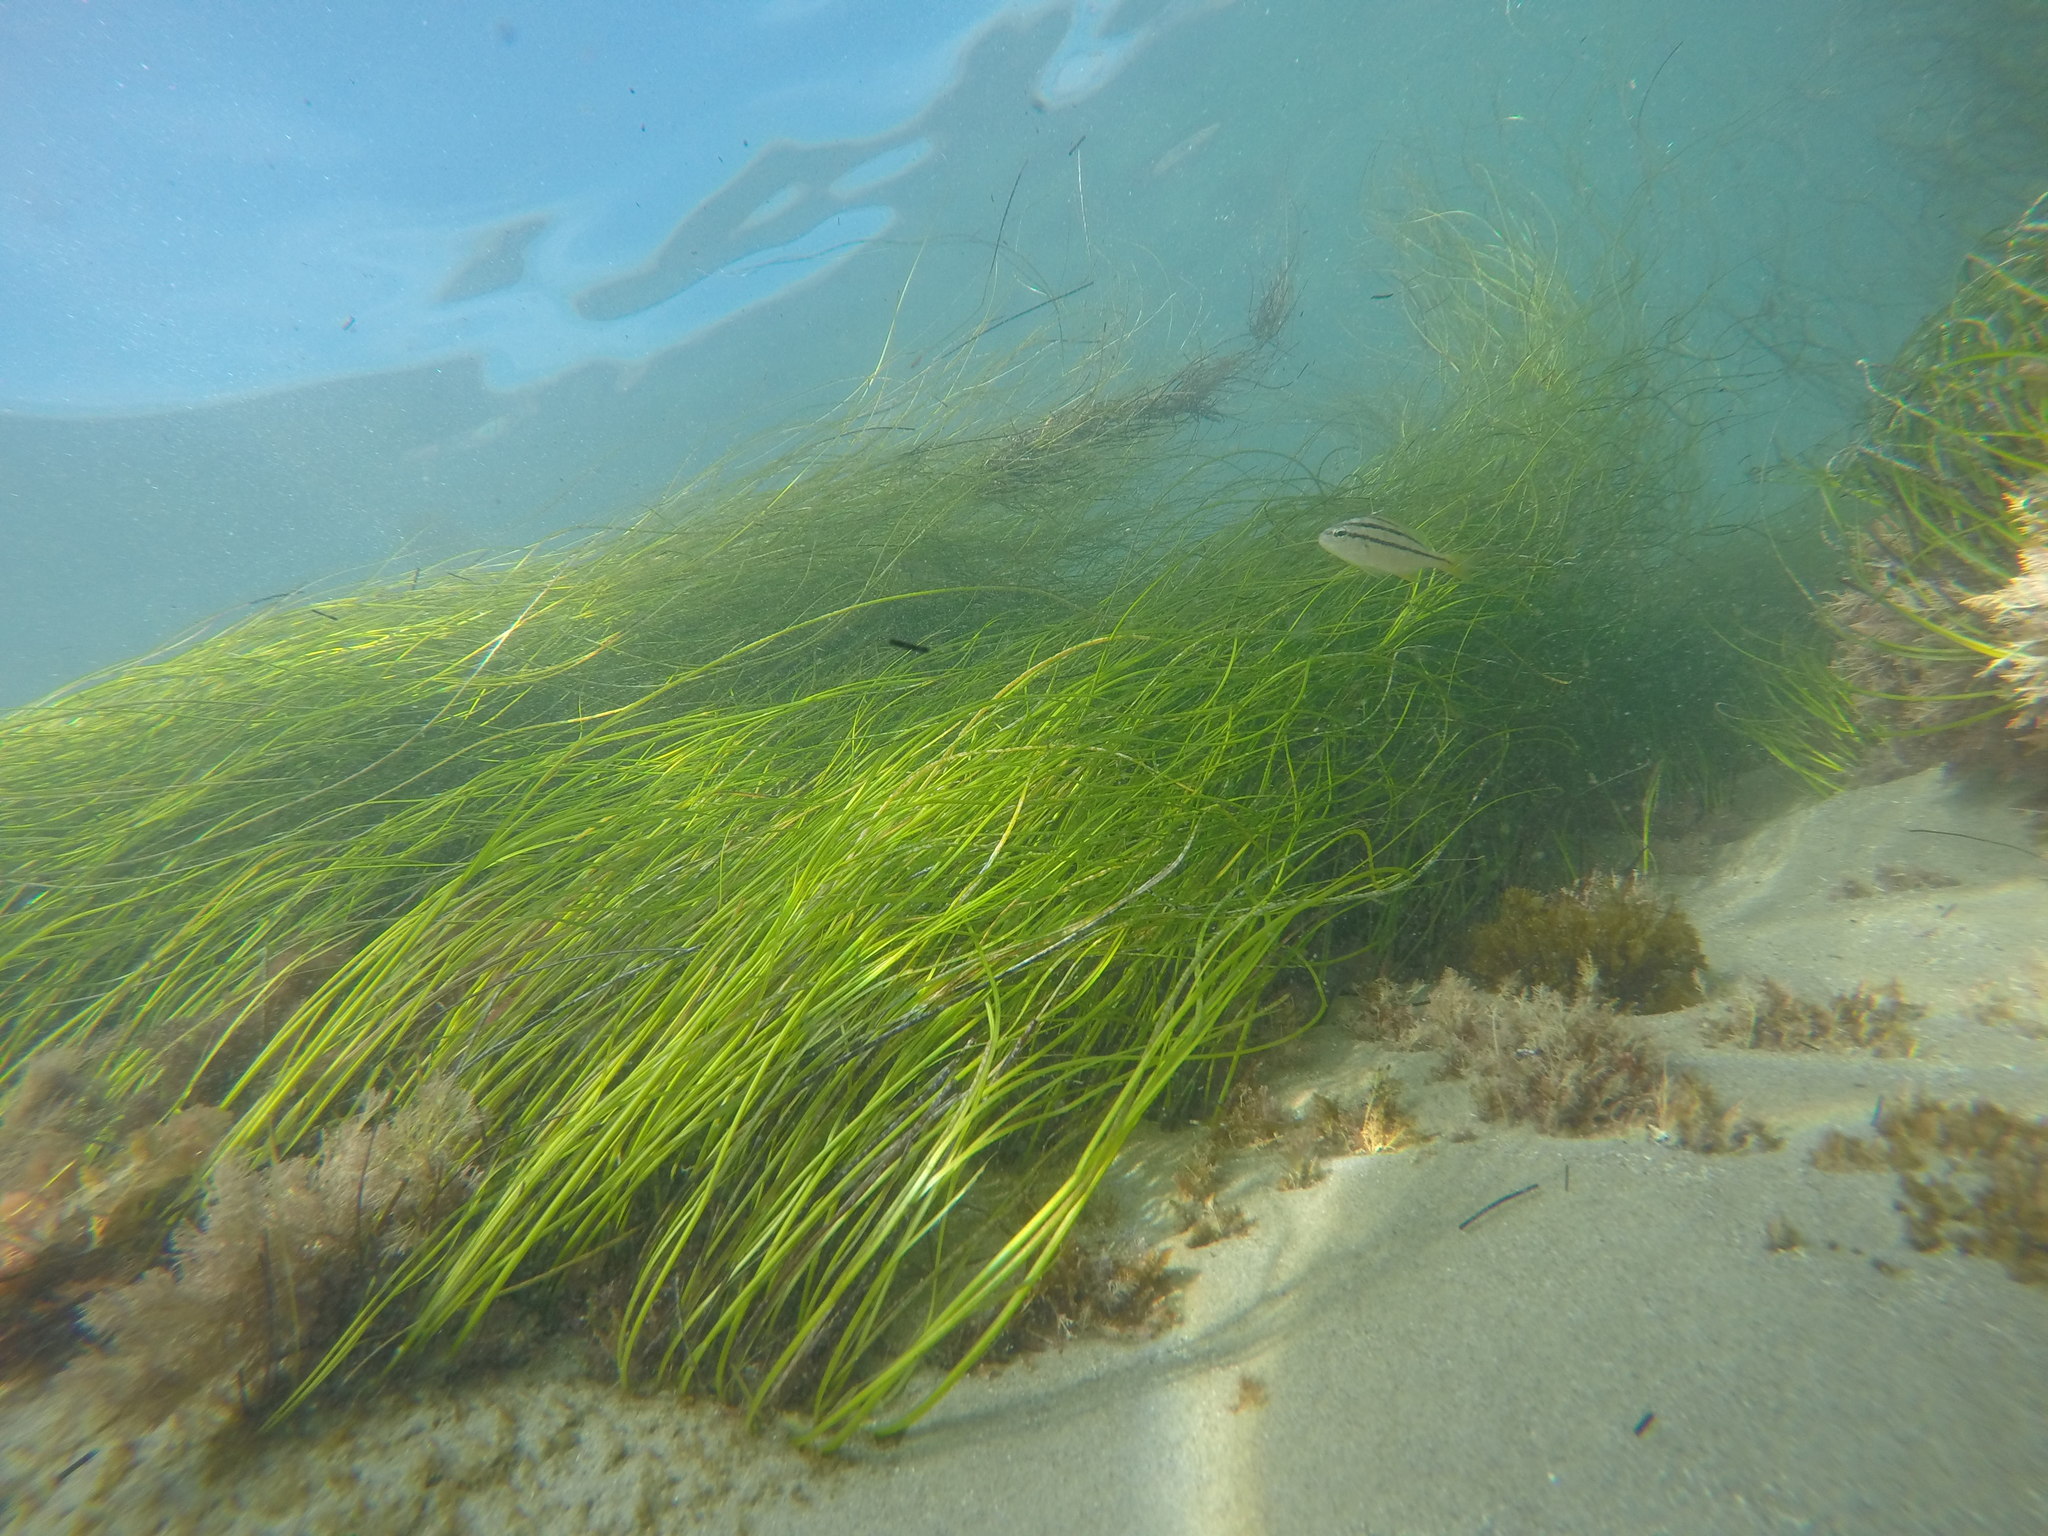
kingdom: Plantae
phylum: Tracheophyta
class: Liliopsida
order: Alismatales
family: Zosteraceae
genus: Phyllospadix
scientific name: Phyllospadix torreyi
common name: Surfgrass
